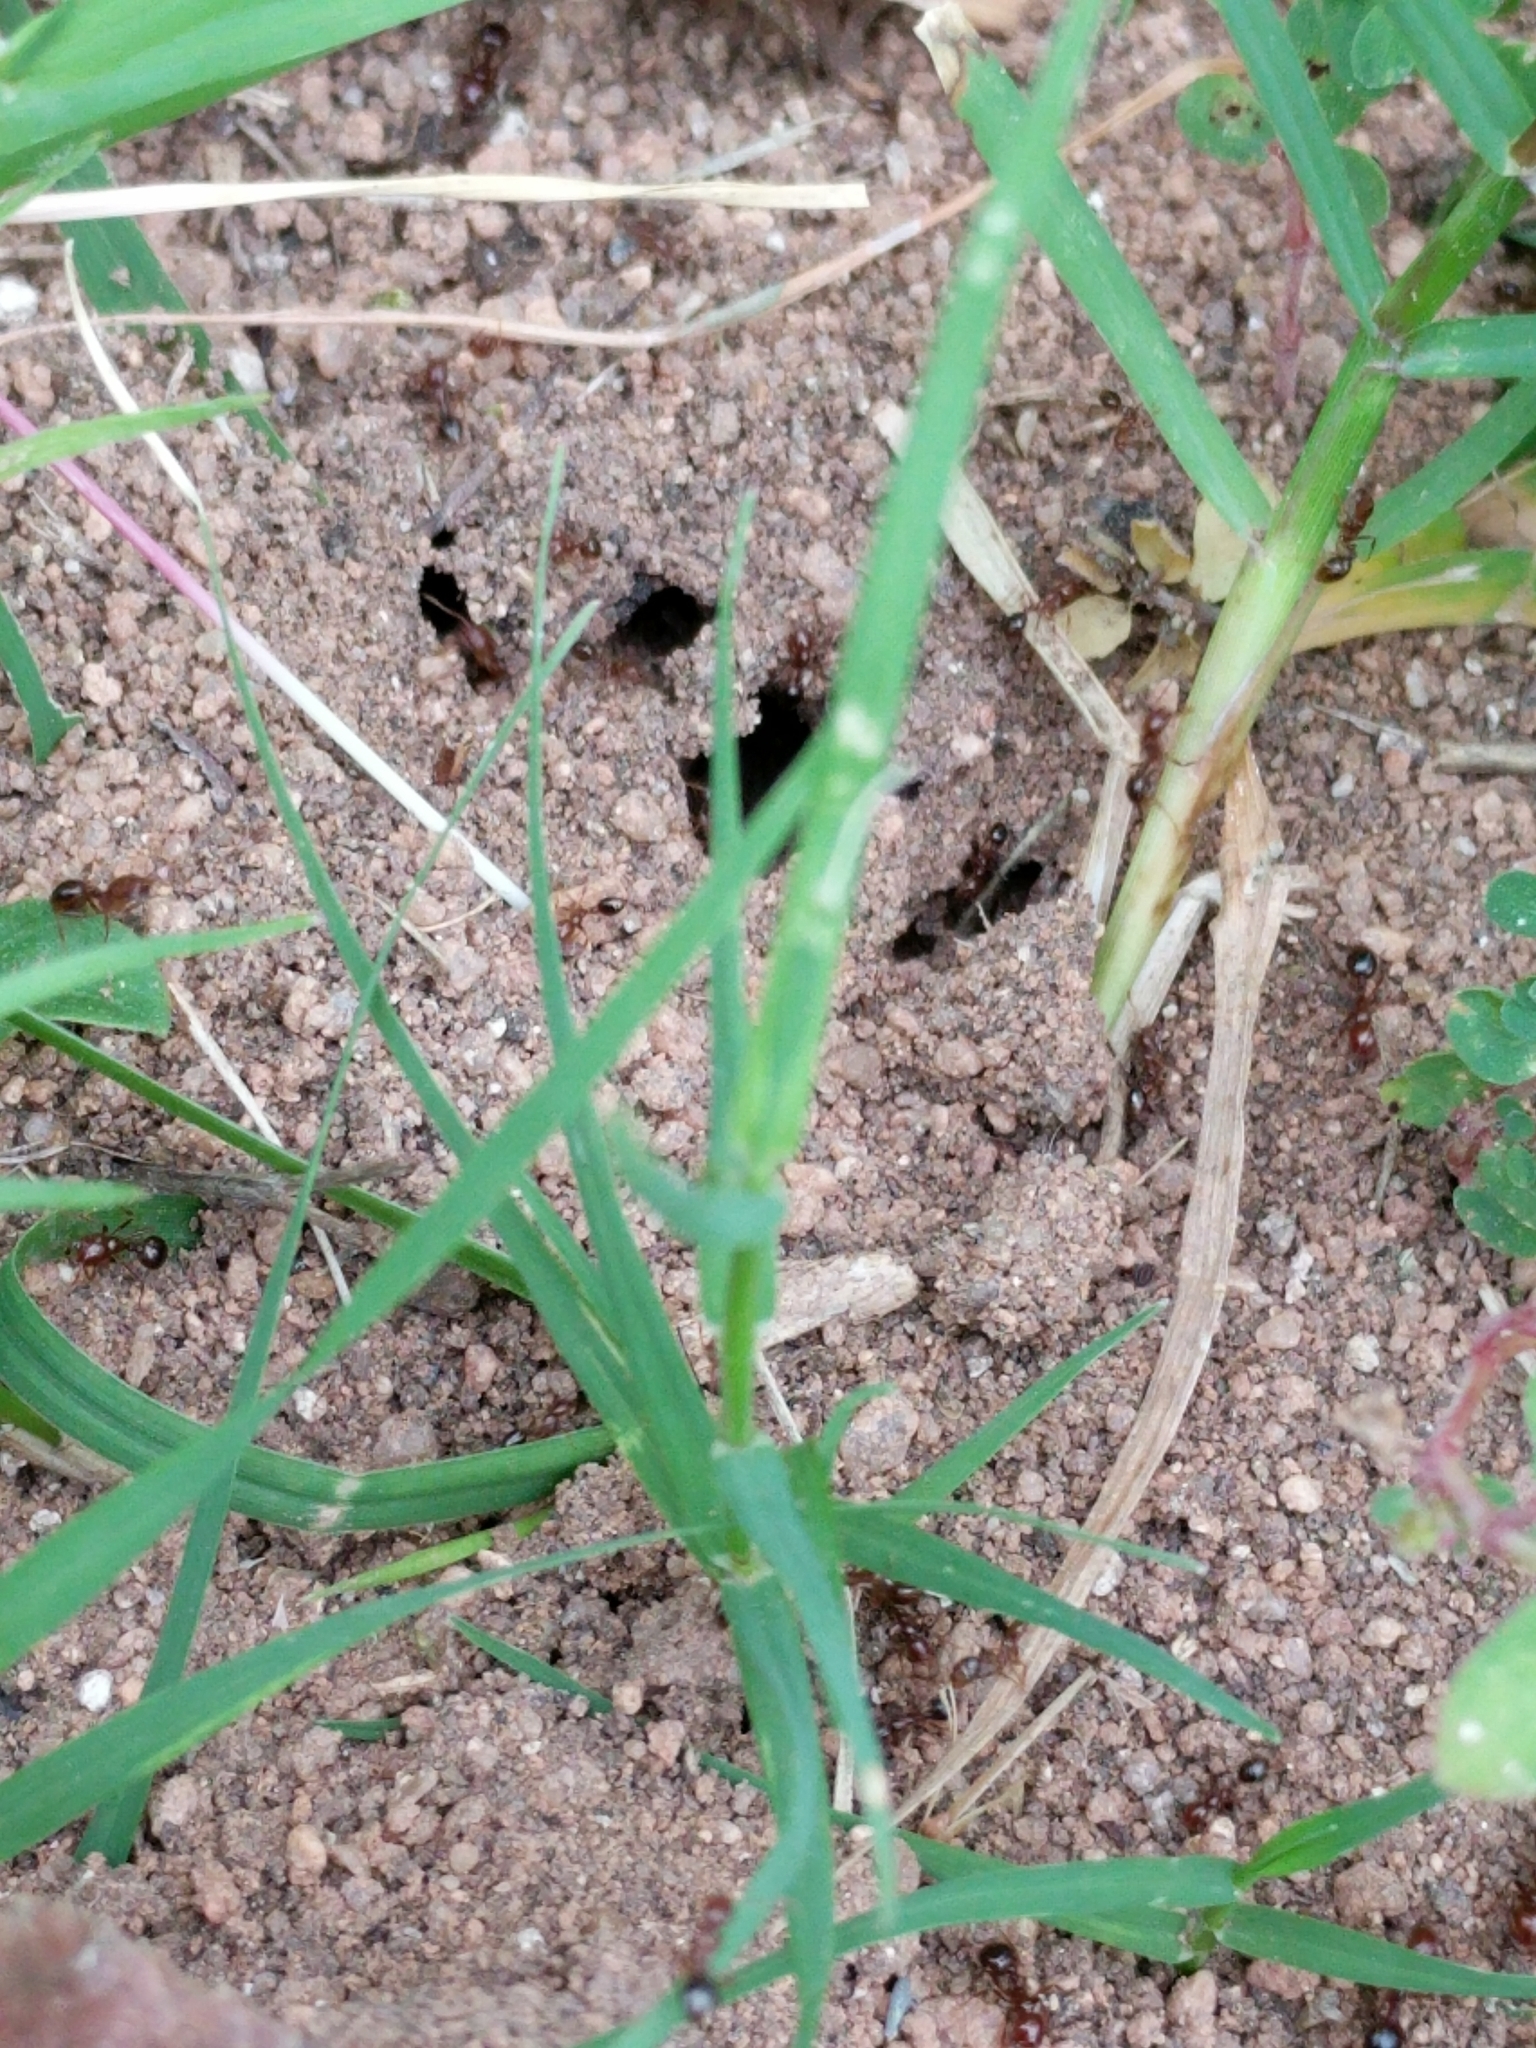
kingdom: Animalia
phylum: Arthropoda
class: Insecta
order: Hymenoptera
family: Formicidae
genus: Solenopsis
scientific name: Solenopsis invicta
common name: Red imported fire ant
